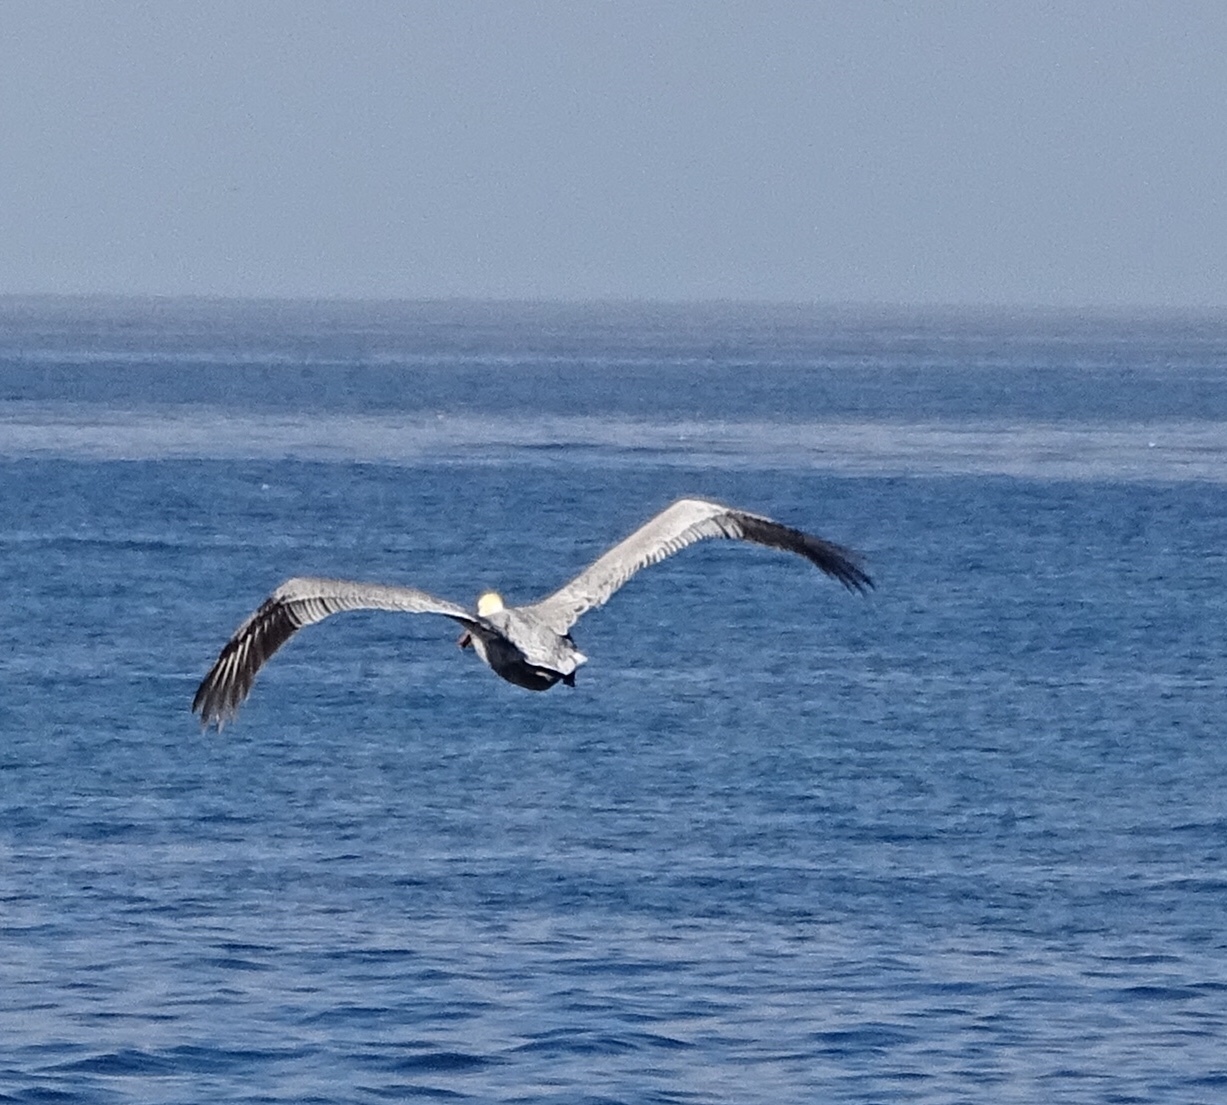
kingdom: Animalia
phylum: Chordata
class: Aves
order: Pelecaniformes
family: Pelecanidae
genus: Pelecanus
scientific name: Pelecanus occidentalis
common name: Brown pelican
